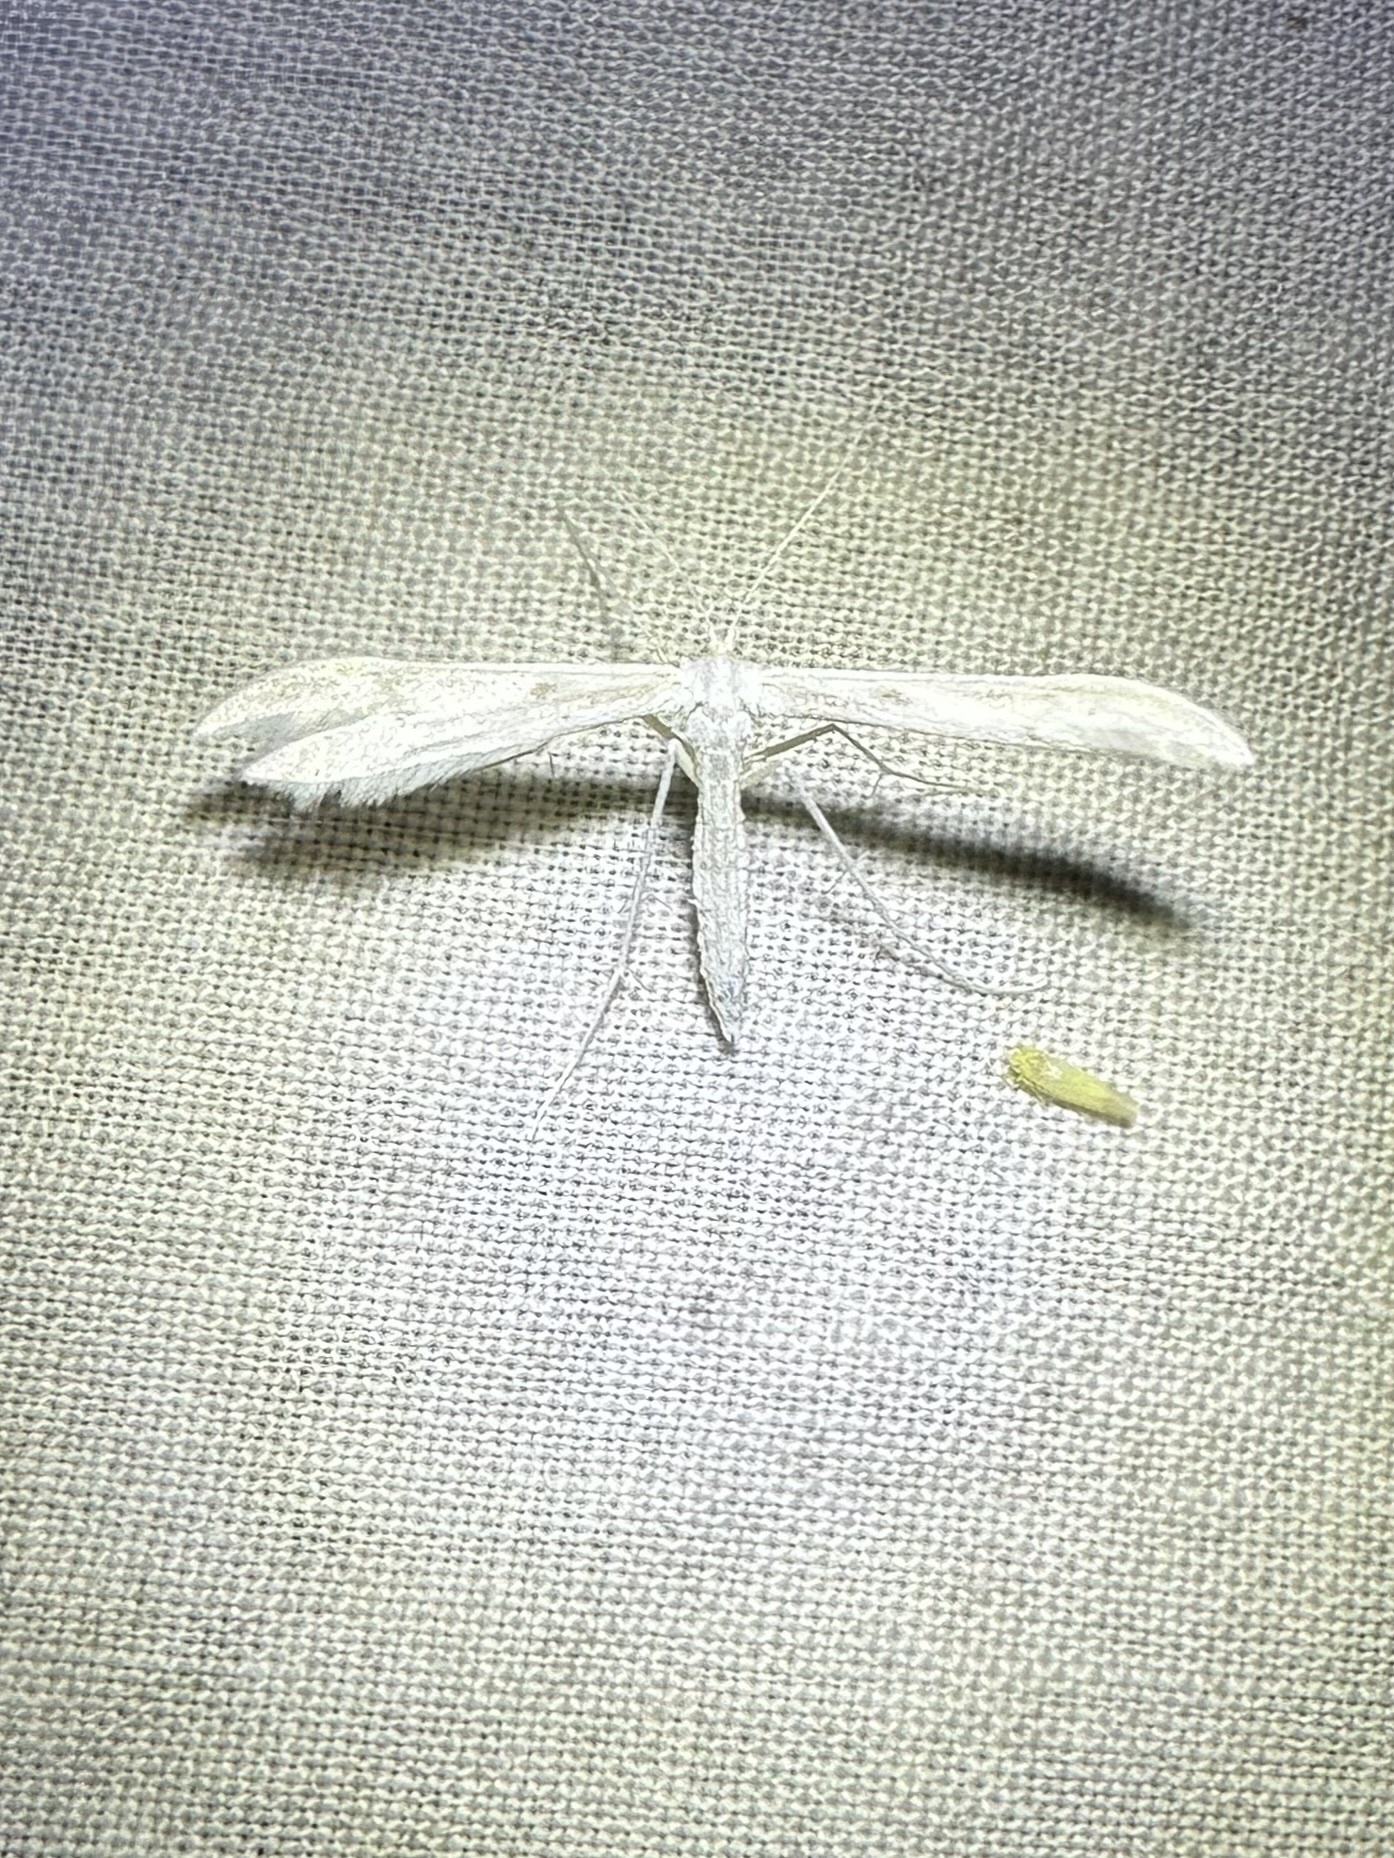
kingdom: Animalia
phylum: Arthropoda
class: Insecta
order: Lepidoptera
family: Pterophoridae
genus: Hellinsia
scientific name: Hellinsia homodactylus
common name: Plain plume moth
